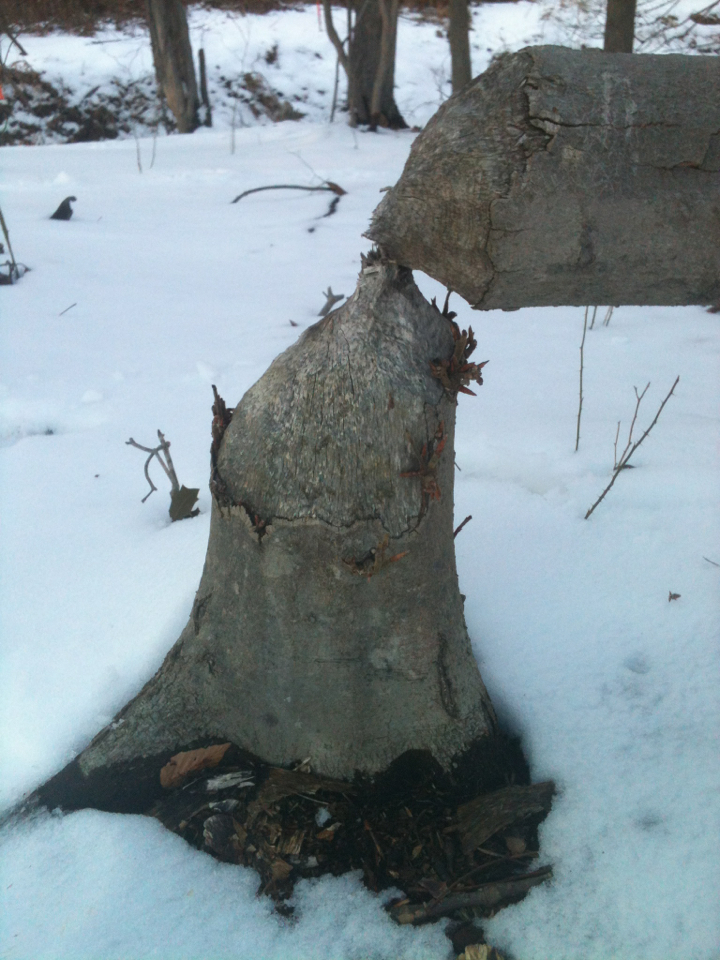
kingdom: Animalia
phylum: Chordata
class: Mammalia
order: Rodentia
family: Castoridae
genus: Castor
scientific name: Castor canadensis
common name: American beaver
